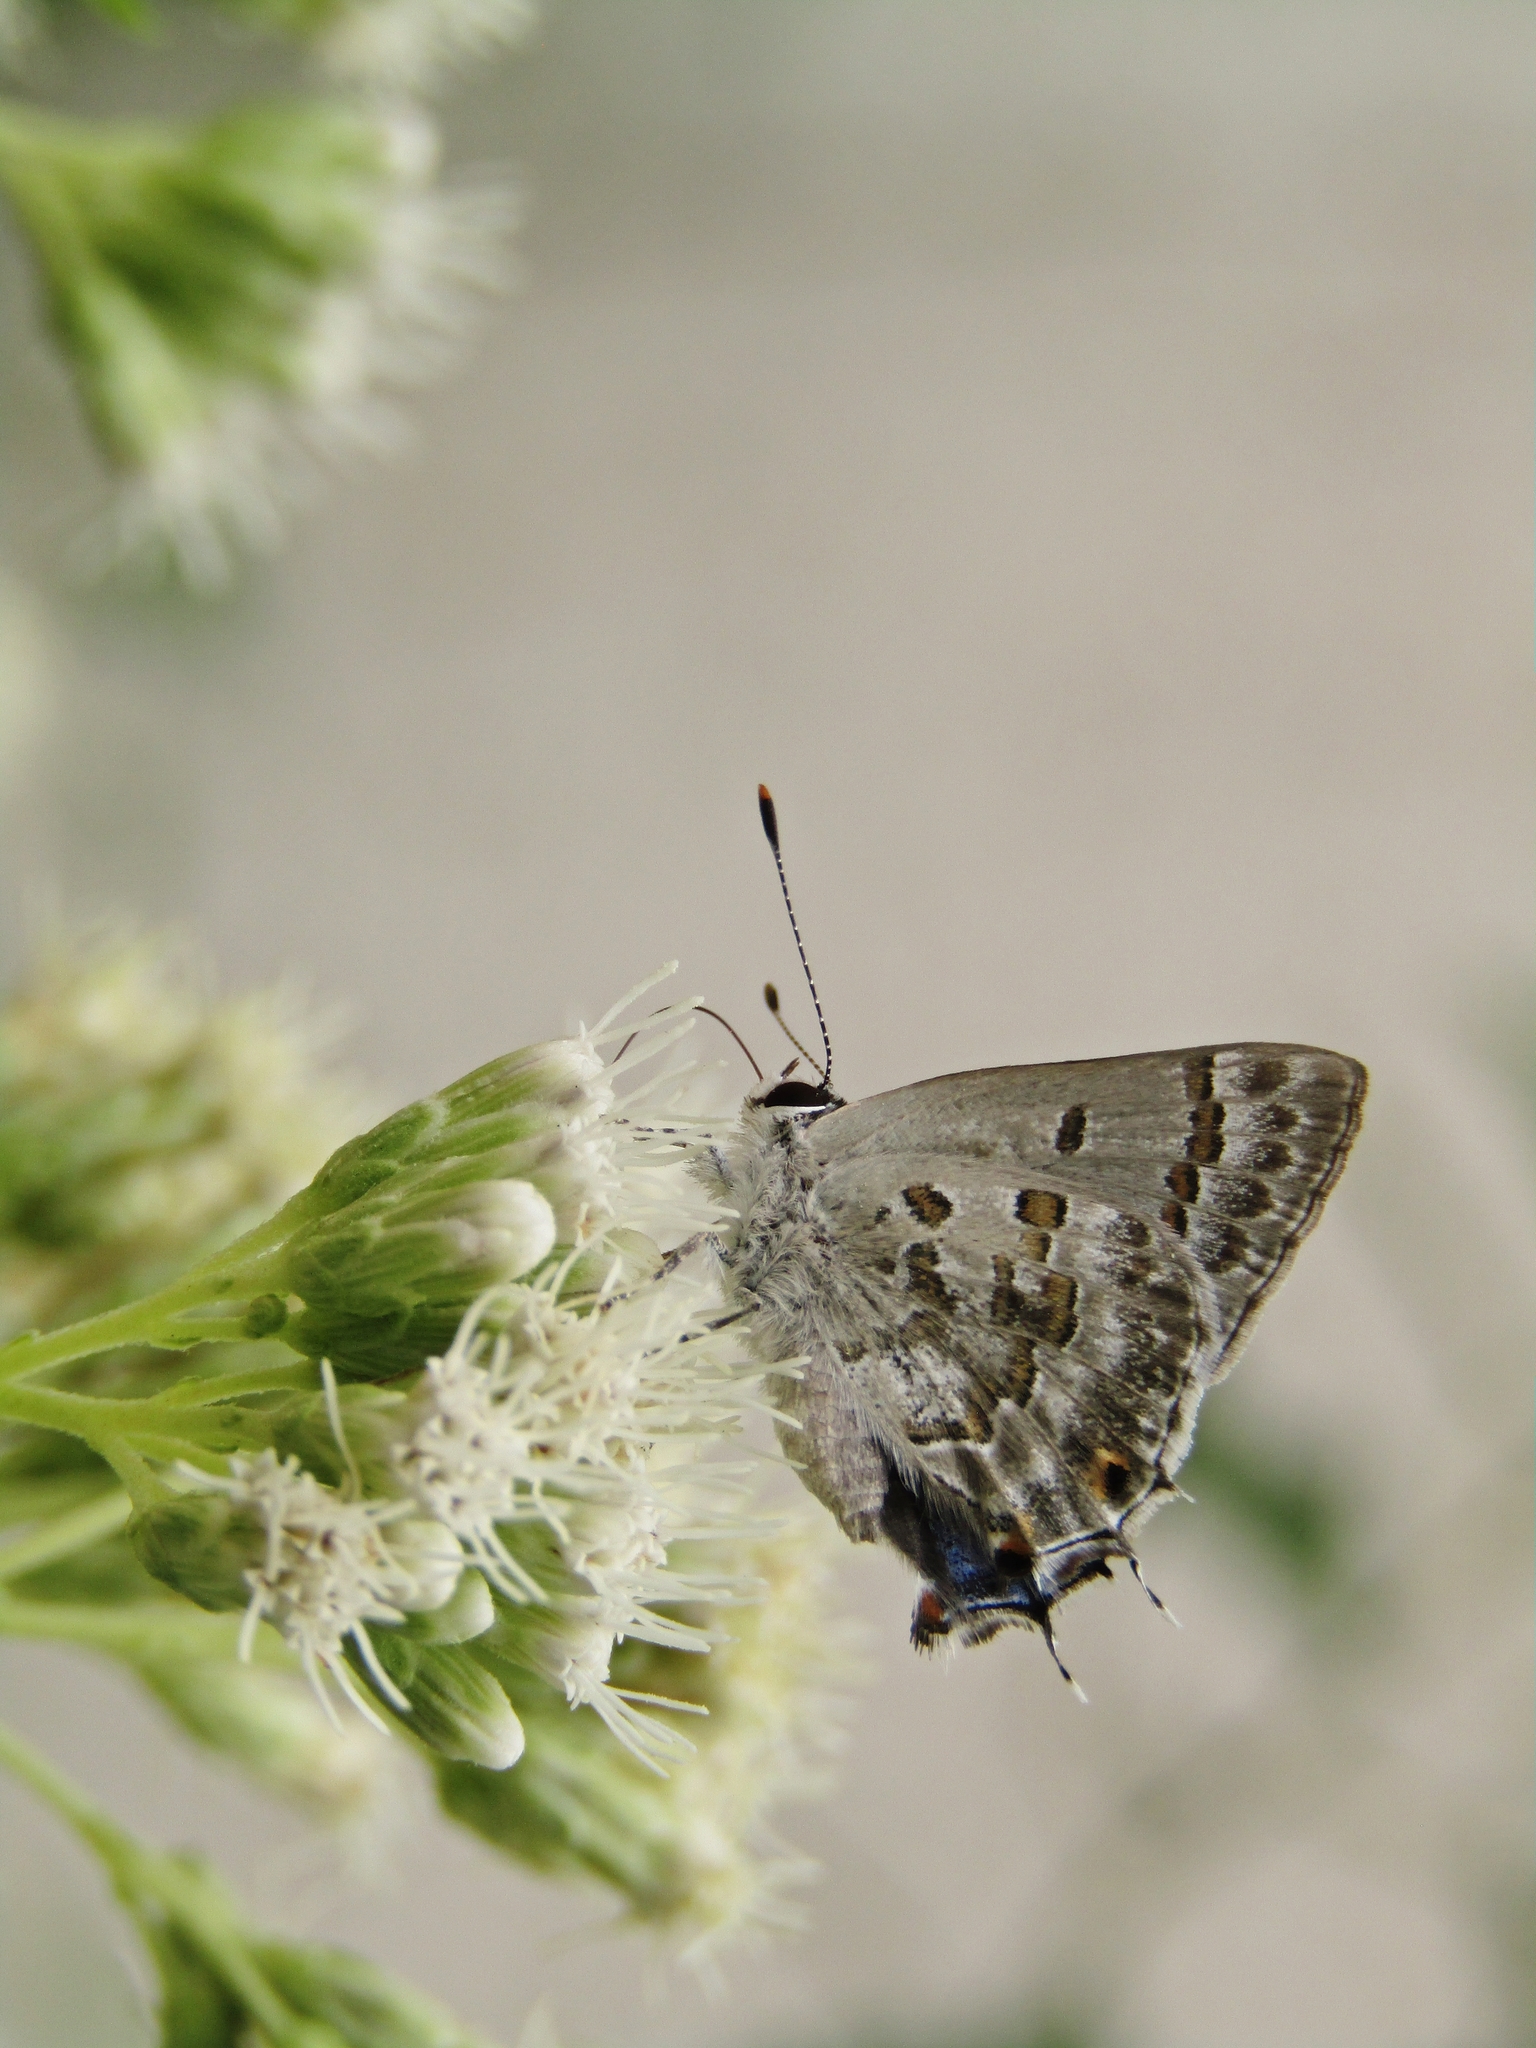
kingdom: Animalia
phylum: Arthropoda
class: Insecta
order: Lepidoptera
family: Lycaenidae
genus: Strymon
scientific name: Strymon lucena
